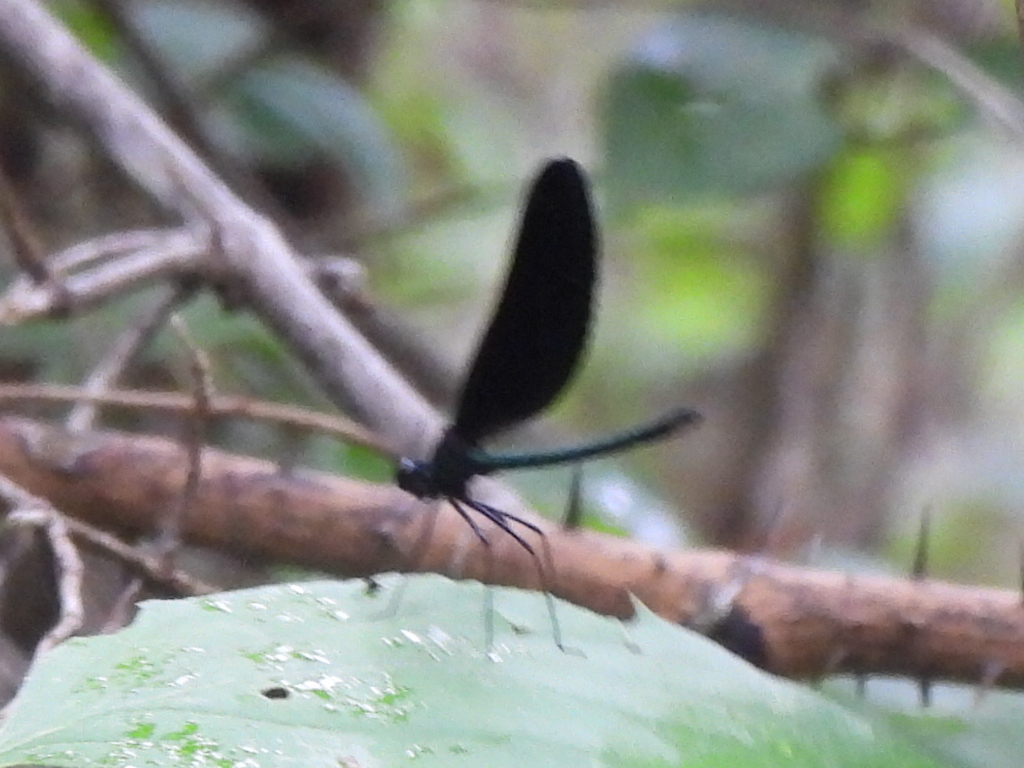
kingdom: Animalia
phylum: Arthropoda
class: Insecta
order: Odonata
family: Calopterygidae
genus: Calopteryx
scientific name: Calopteryx maculata
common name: Ebony jewelwing
